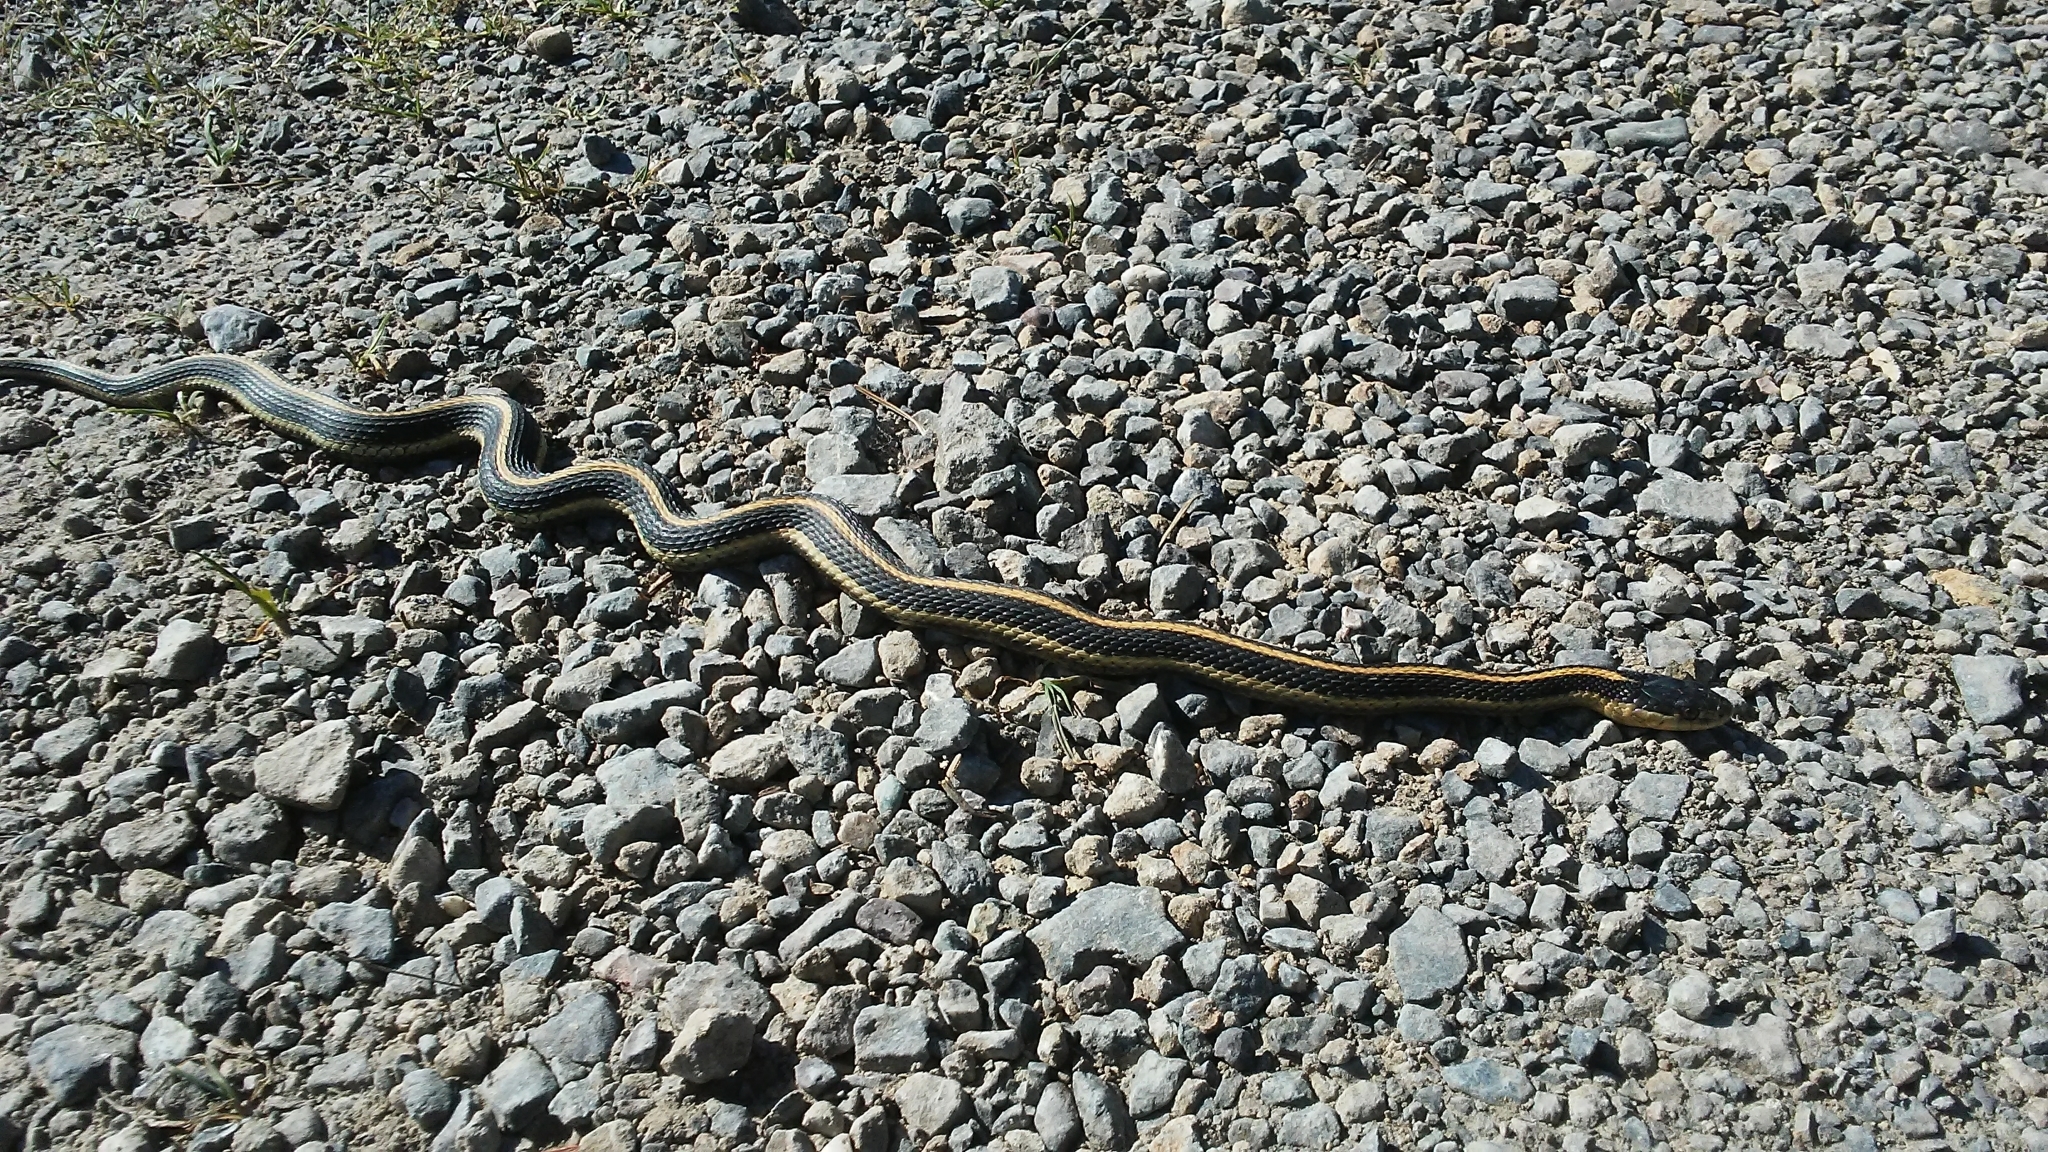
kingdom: Animalia
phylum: Chordata
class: Squamata
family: Colubridae
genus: Thamnophis
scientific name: Thamnophis atratus
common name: Pacific coast aquatic garter snake
